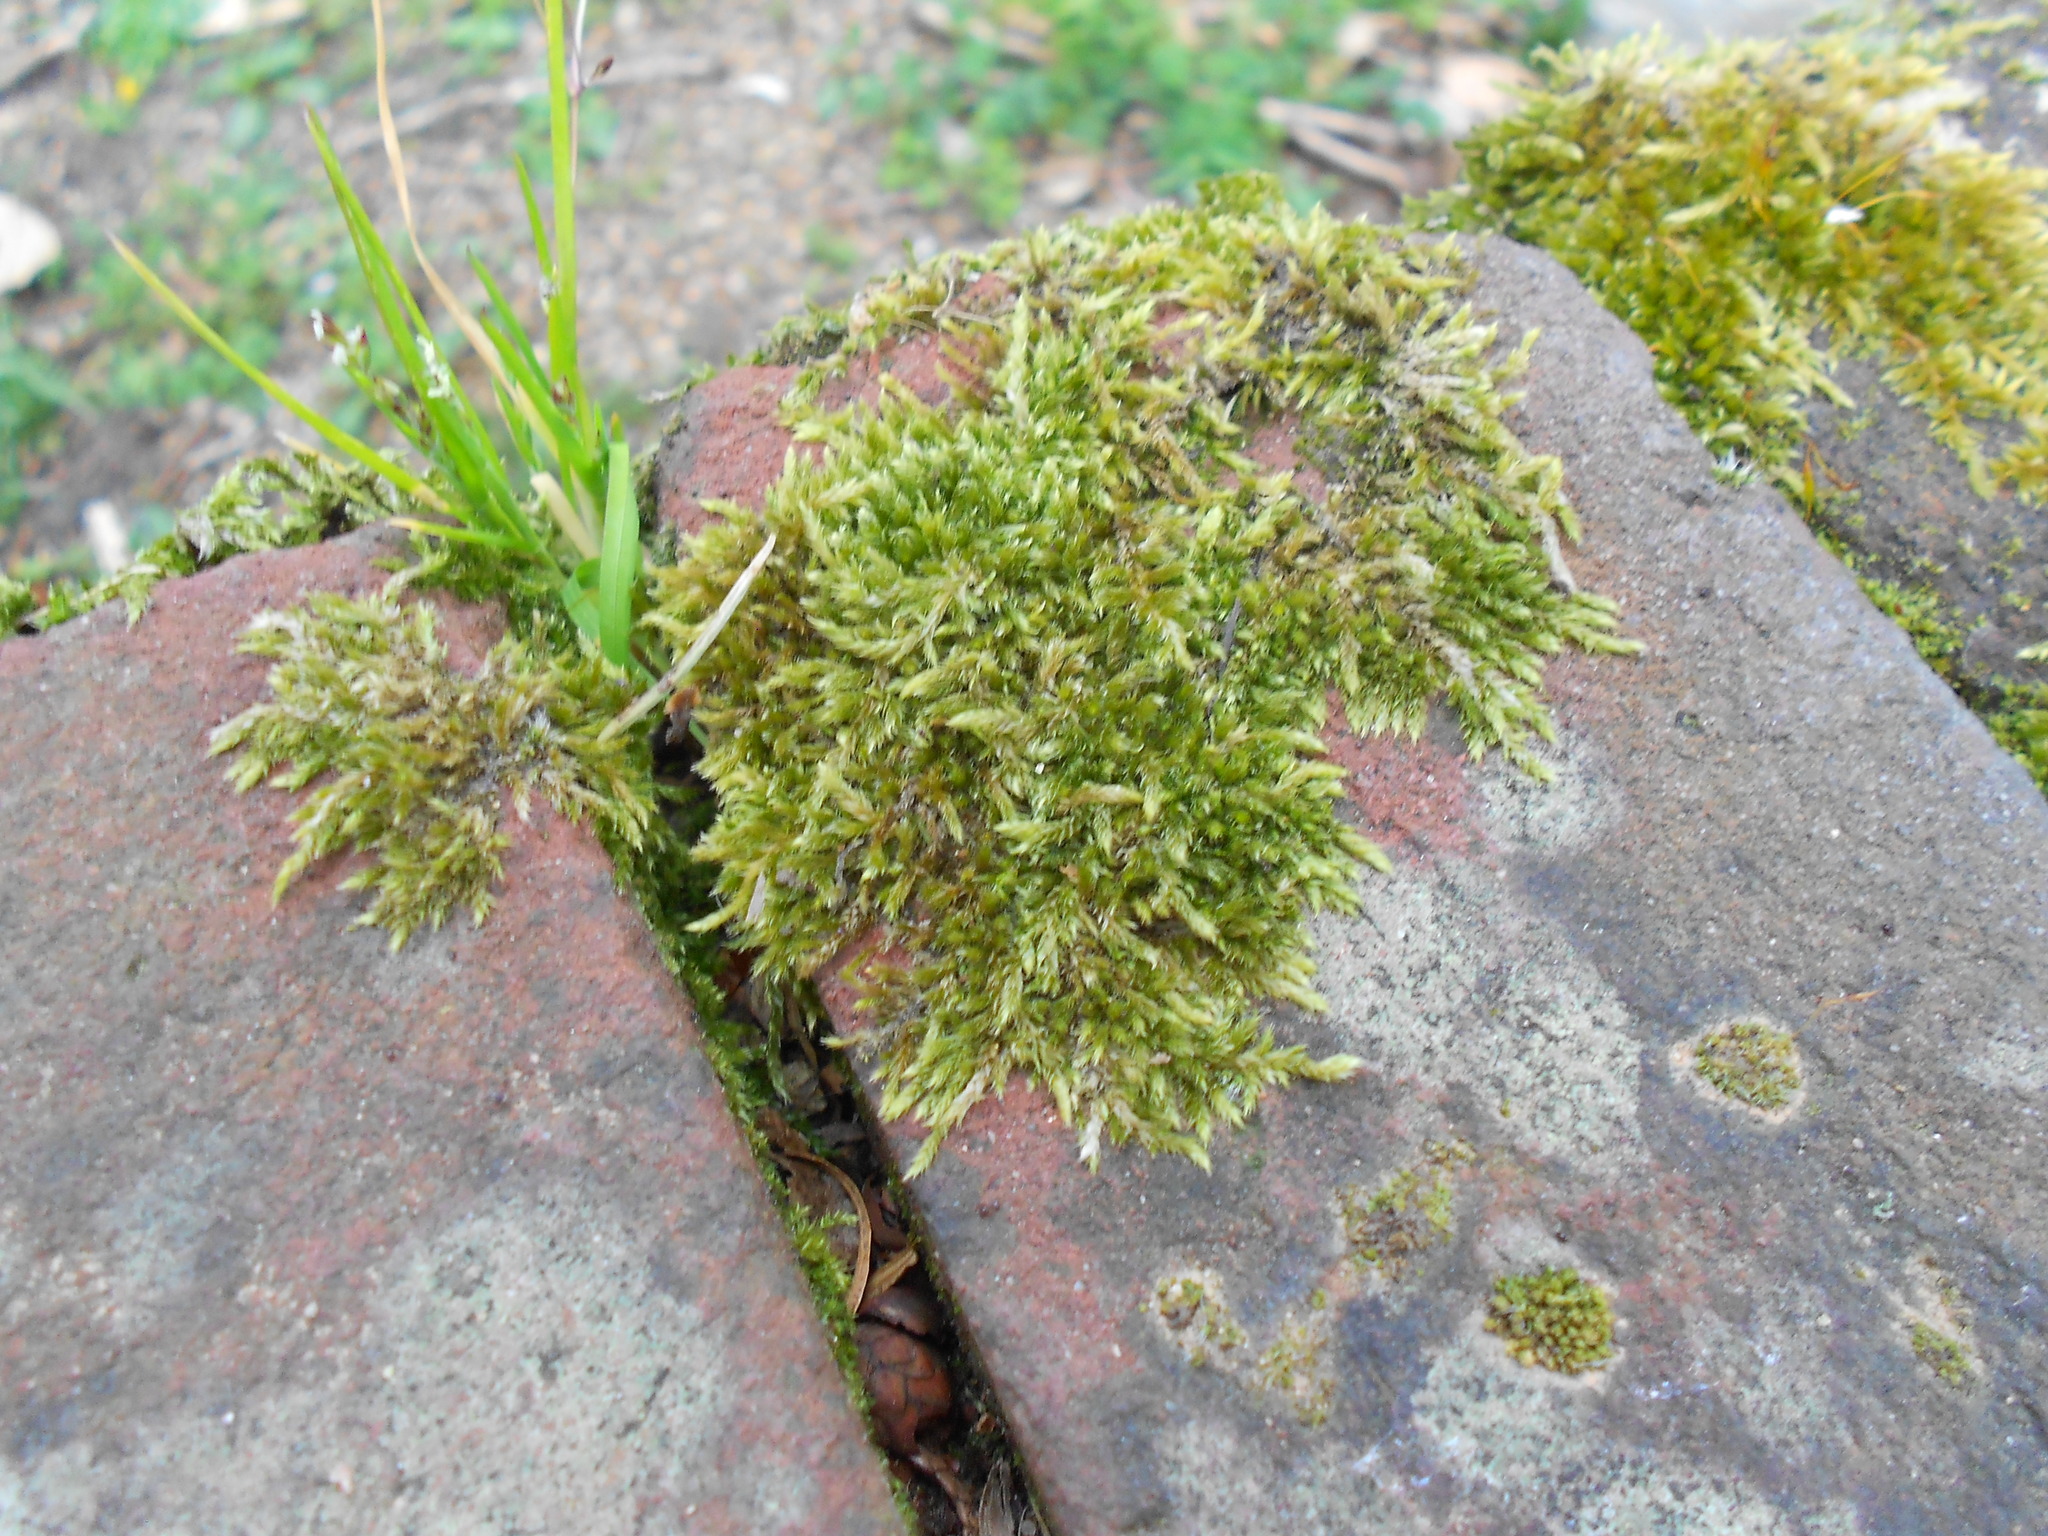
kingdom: Plantae
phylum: Bryophyta
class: Bryopsida
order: Hypnales
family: Hypnaceae
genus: Hypnum
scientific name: Hypnum cupressiforme
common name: Cypress-leaved plait-moss
